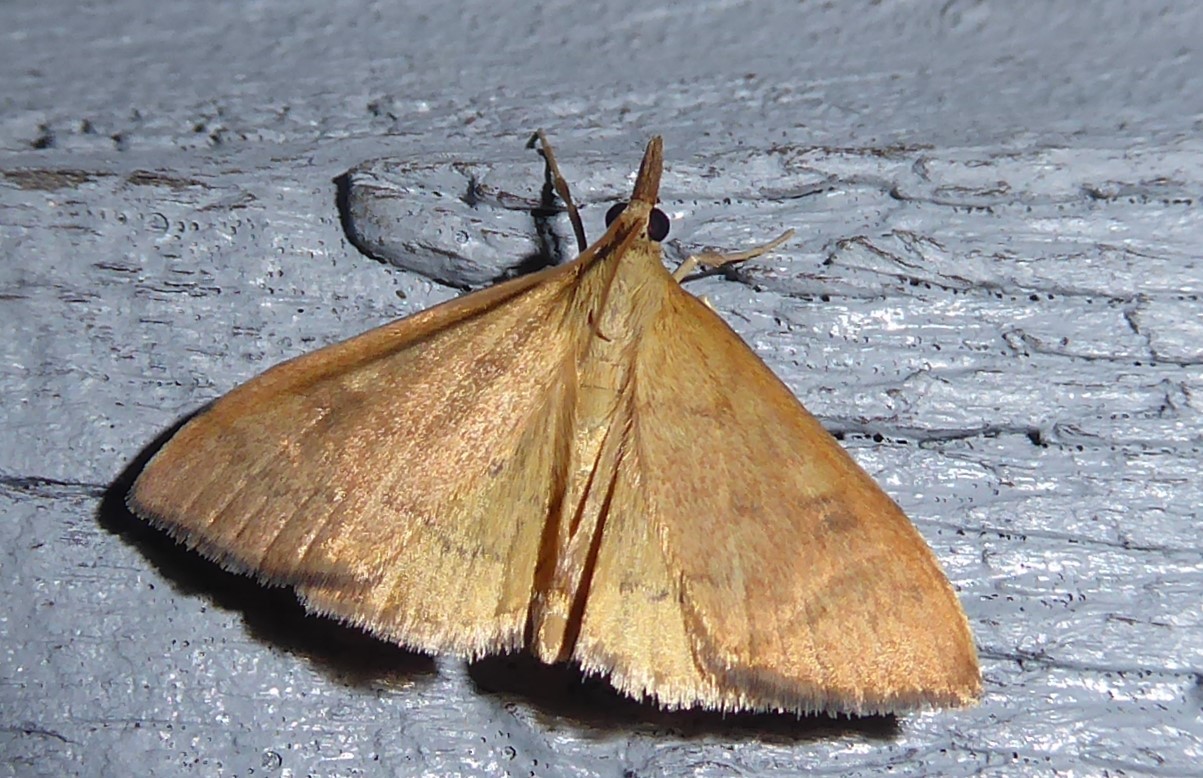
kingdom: Animalia
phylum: Arthropoda
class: Insecta
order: Lepidoptera
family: Crambidae
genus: Udea
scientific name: Udea Mnesictena flavidalis
